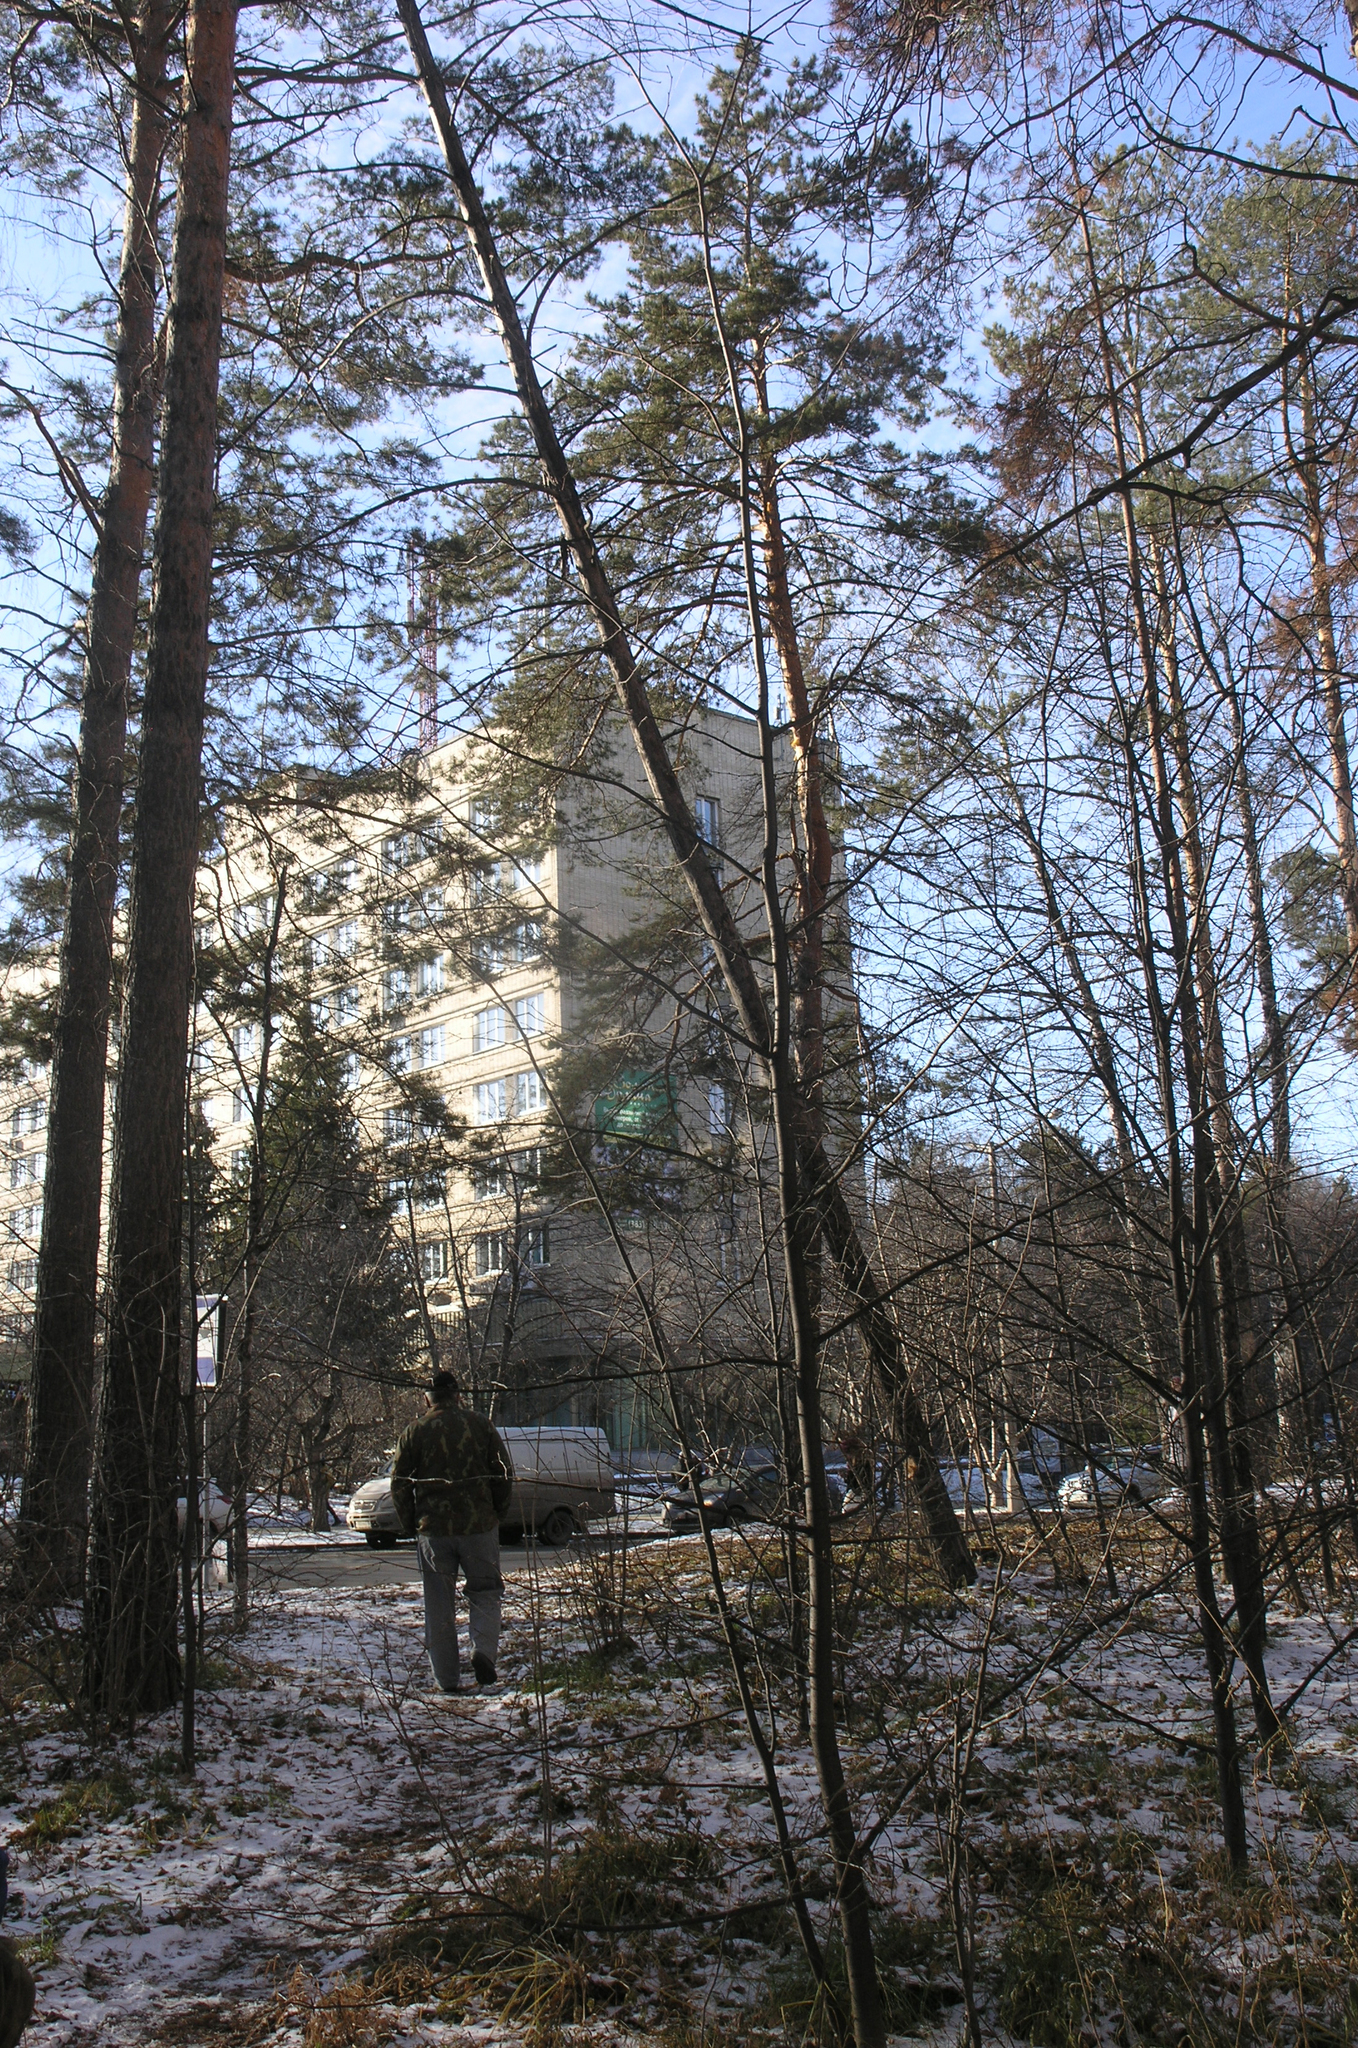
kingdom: Plantae
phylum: Tracheophyta
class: Pinopsida
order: Pinales
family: Pinaceae
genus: Pinus
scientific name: Pinus sylvestris
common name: Scots pine
